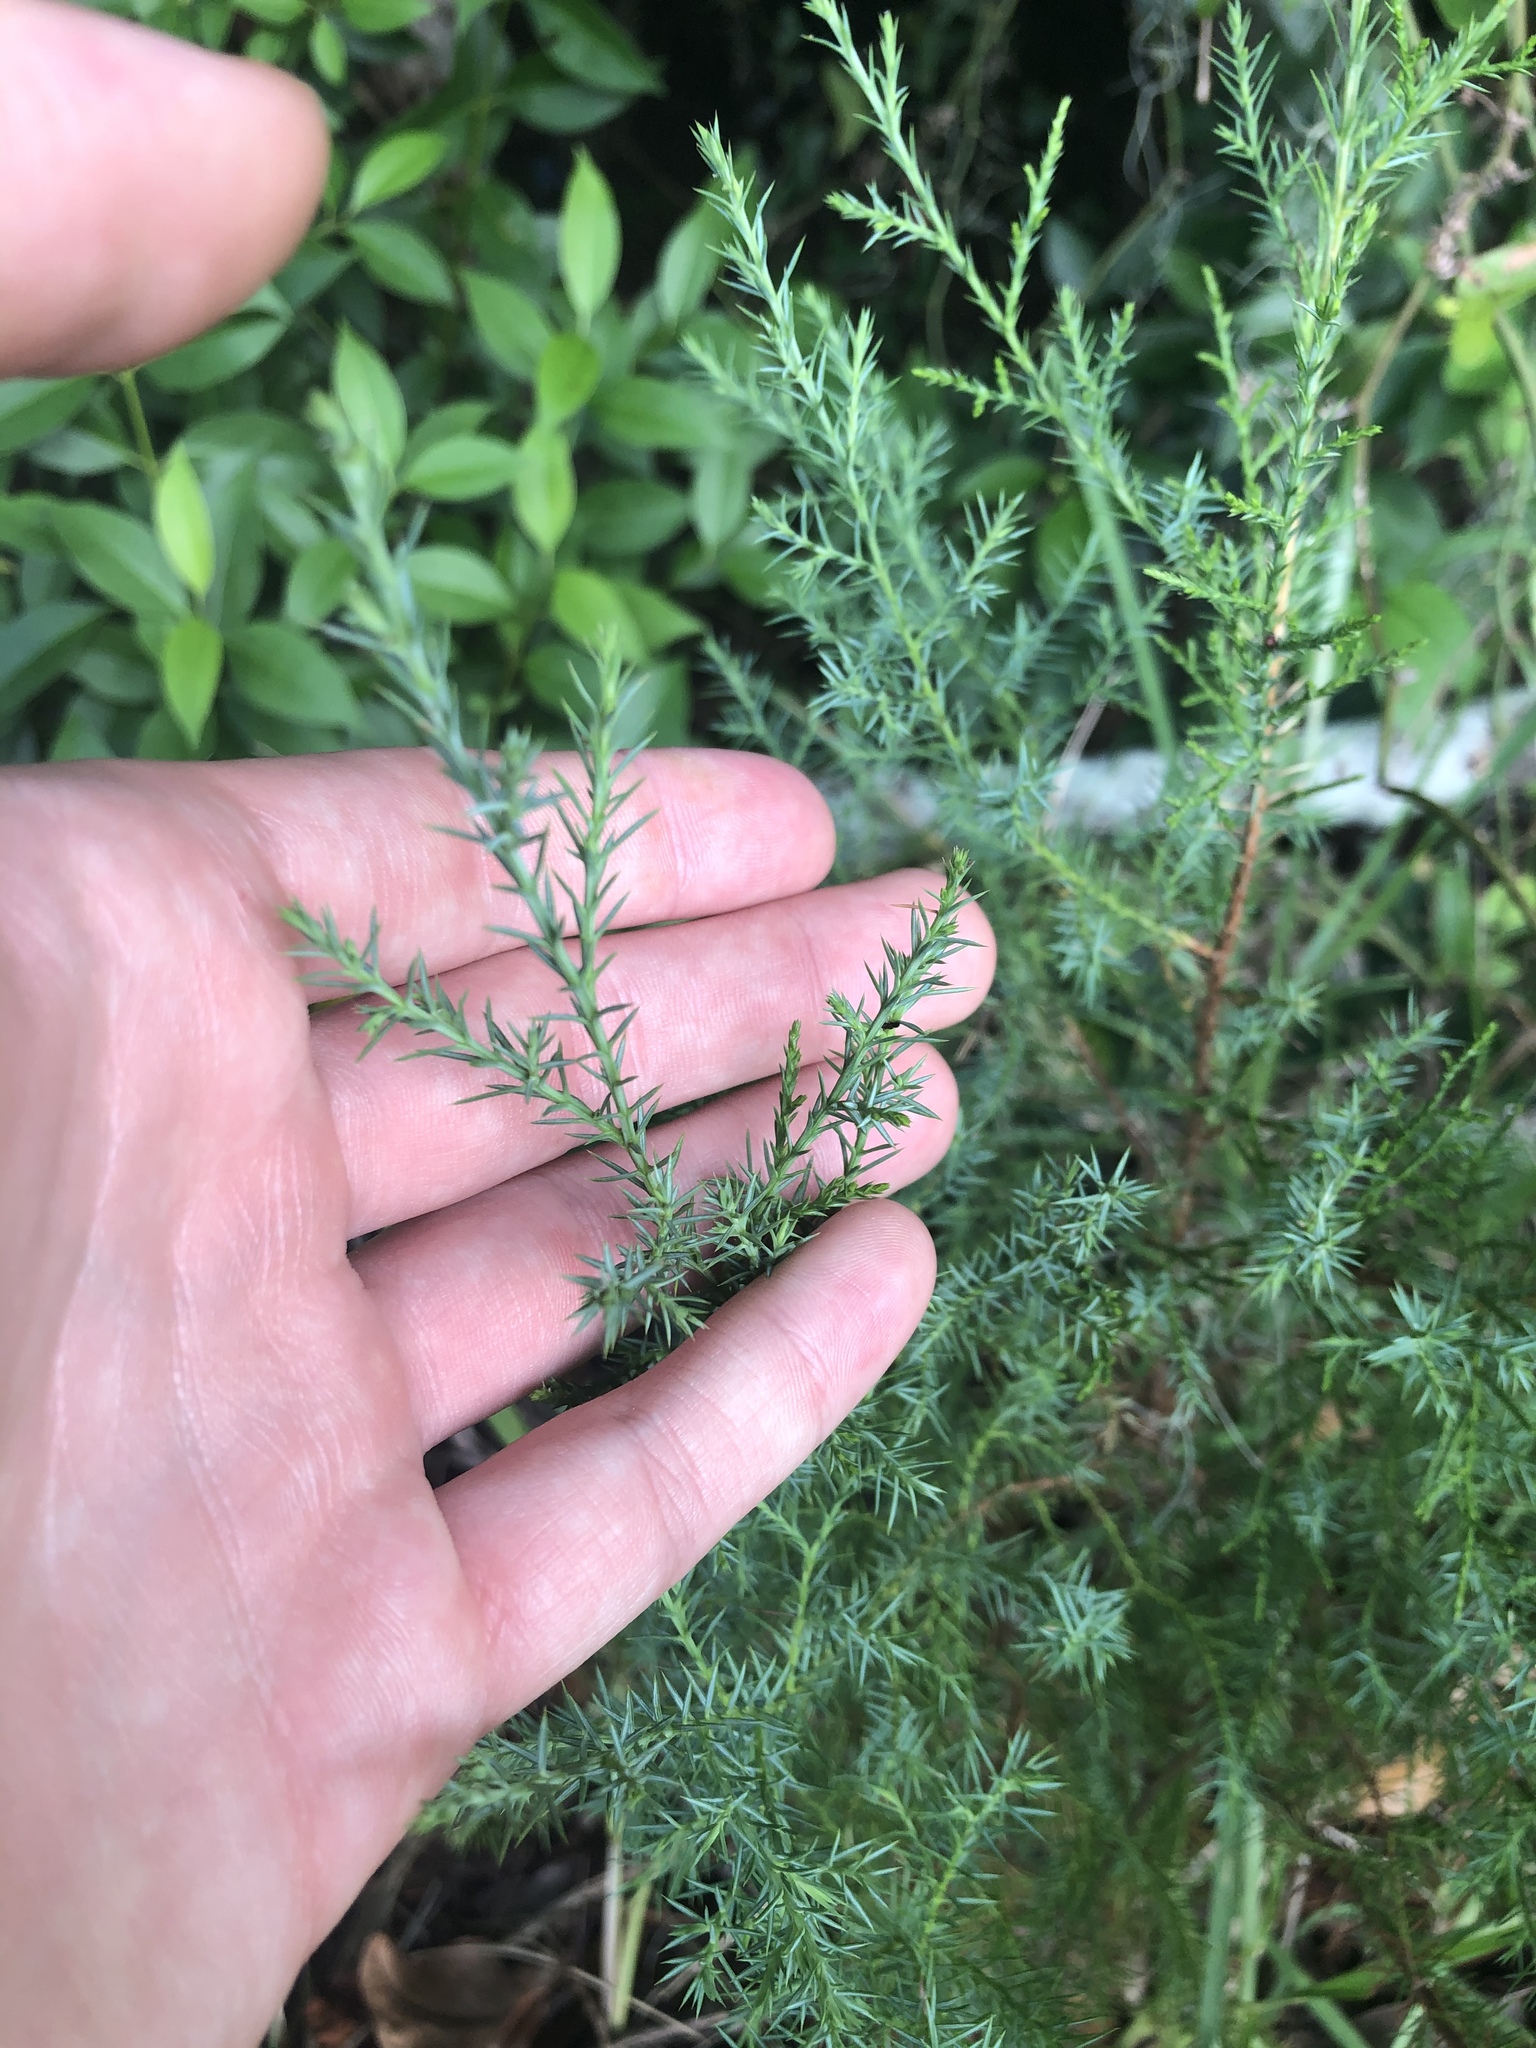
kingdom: Plantae
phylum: Tracheophyta
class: Pinopsida
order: Pinales
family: Cupressaceae
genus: Juniperus
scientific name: Juniperus virginiana
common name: Red juniper
